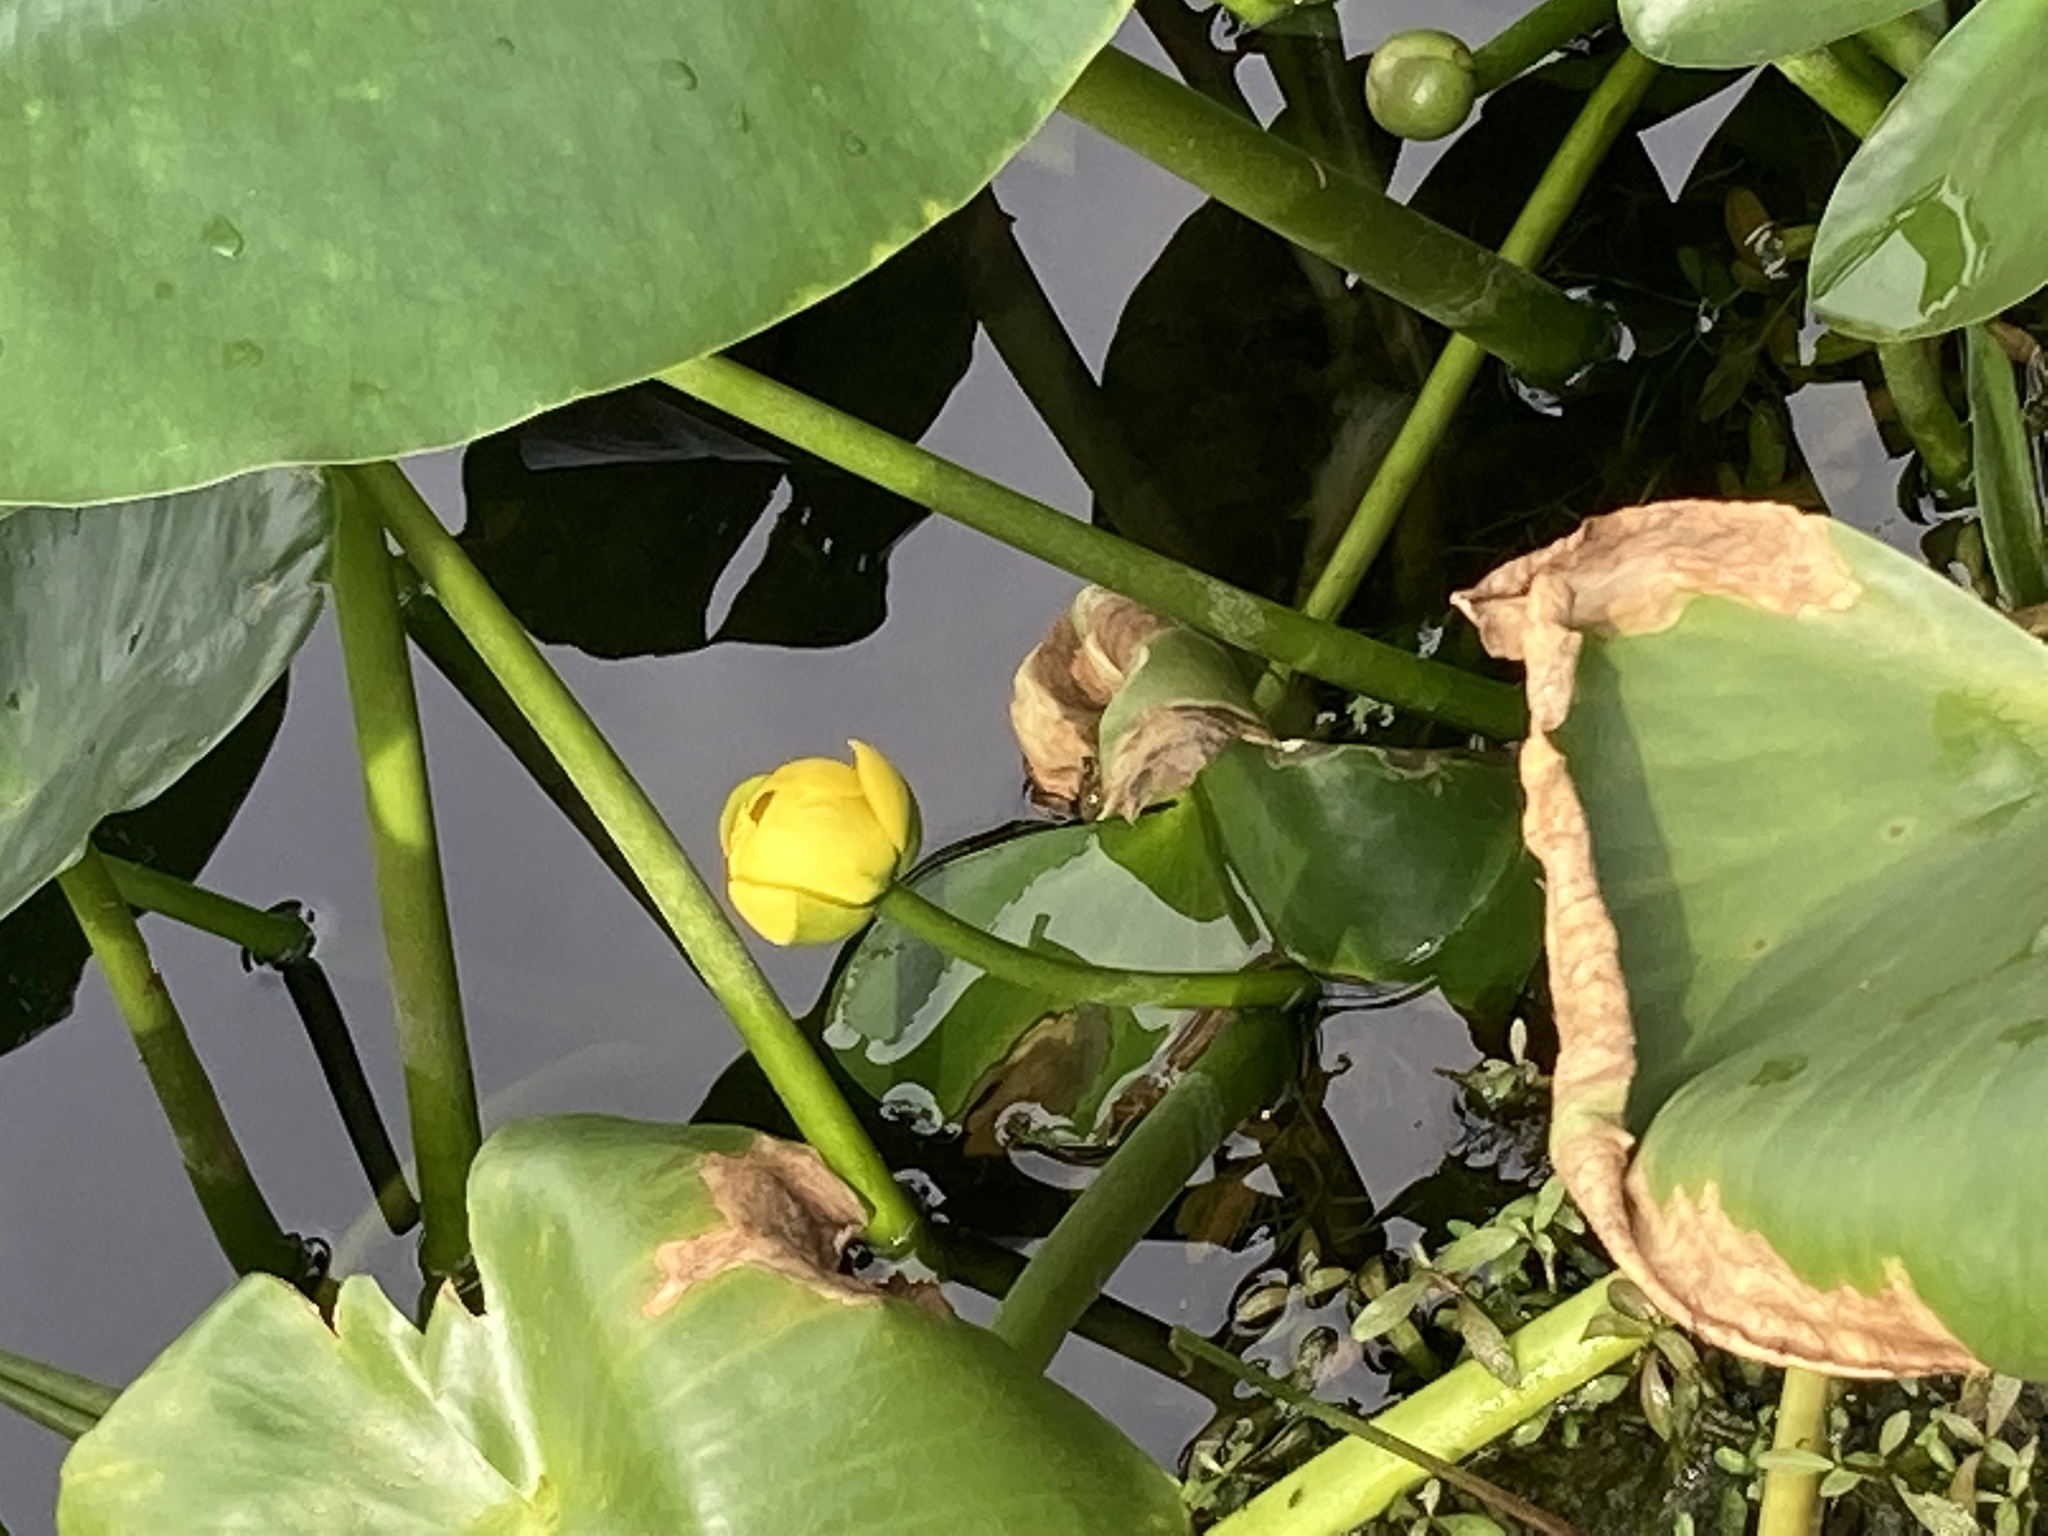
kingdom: Plantae
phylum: Tracheophyta
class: Magnoliopsida
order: Nymphaeales
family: Nymphaeaceae
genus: Nuphar
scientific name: Nuphar advena
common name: Spatter-dock
